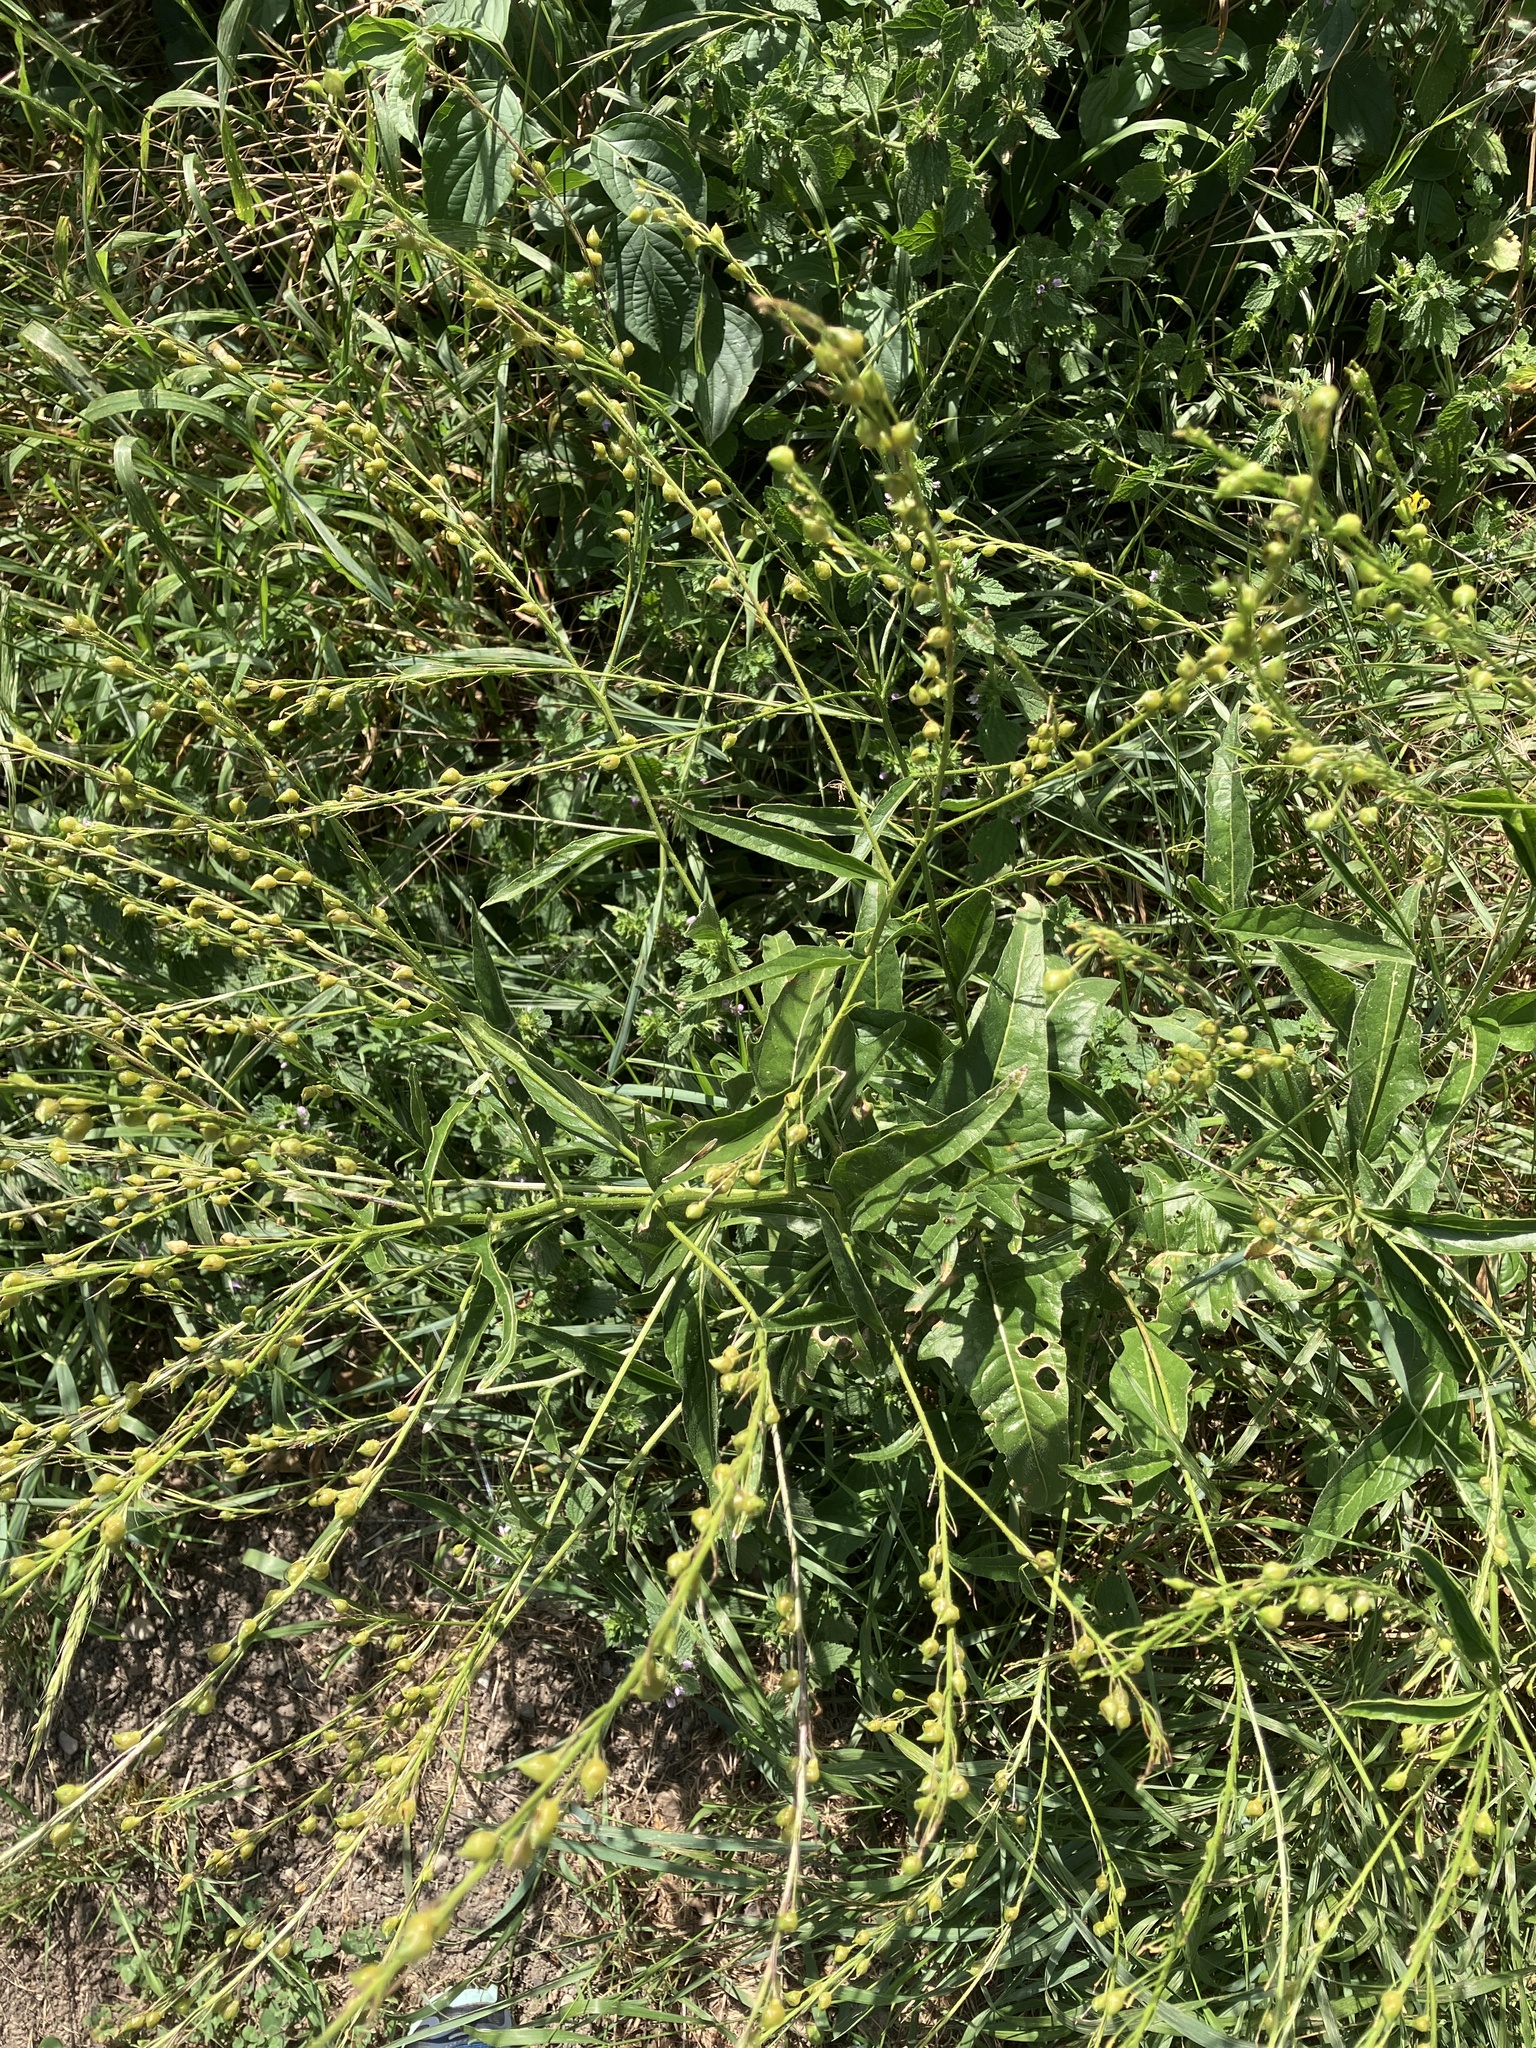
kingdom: Plantae
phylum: Tracheophyta
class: Magnoliopsida
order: Brassicales
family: Brassicaceae
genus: Bunias
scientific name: Bunias orientalis
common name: Warty-cabbage
